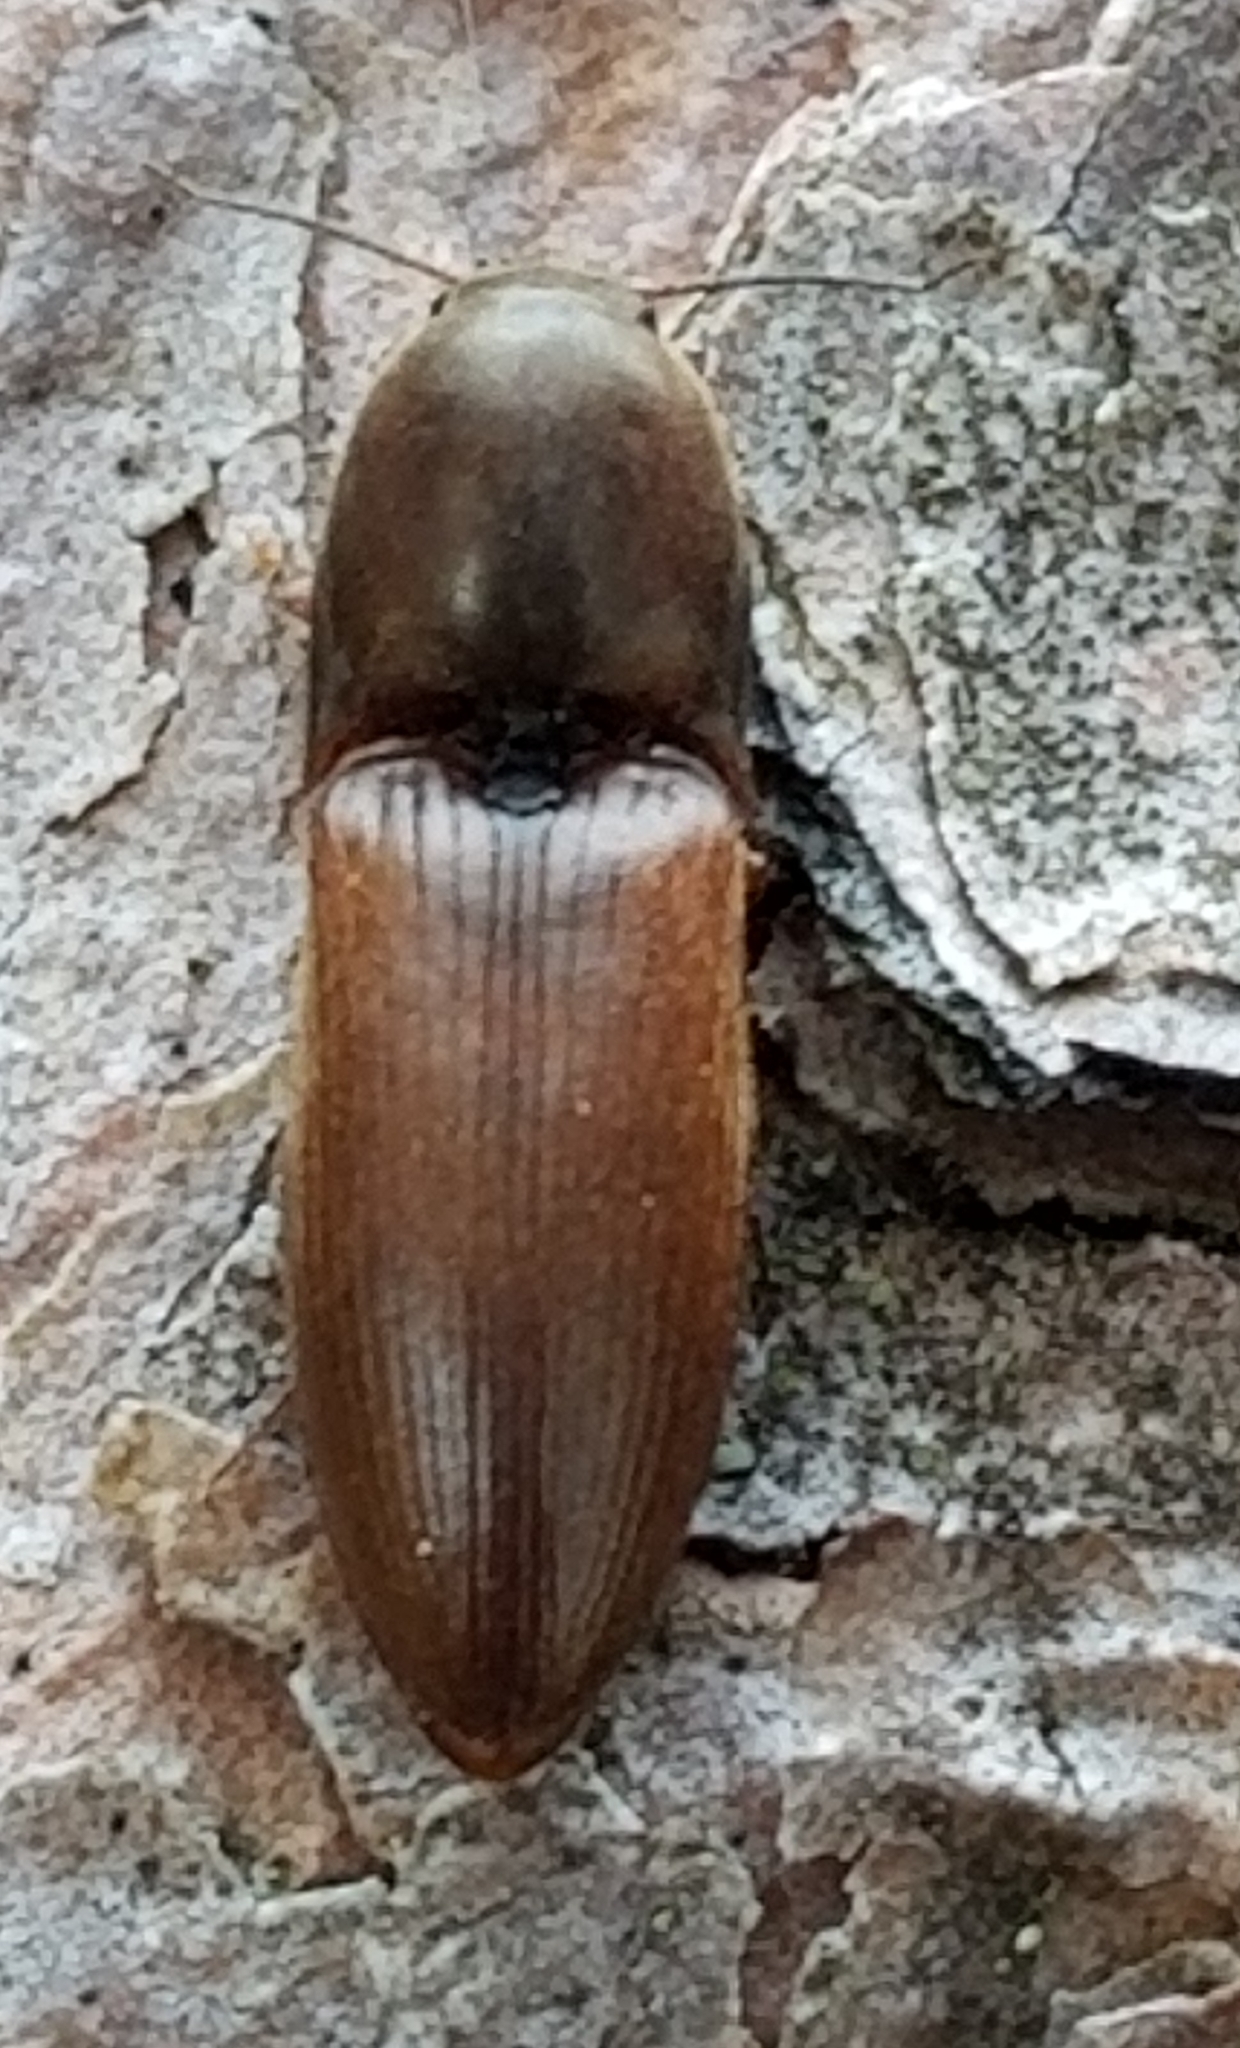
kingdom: Animalia
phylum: Arthropoda
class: Insecta
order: Coleoptera
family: Elateridae
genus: Sericus
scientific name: Sericus incongruus
